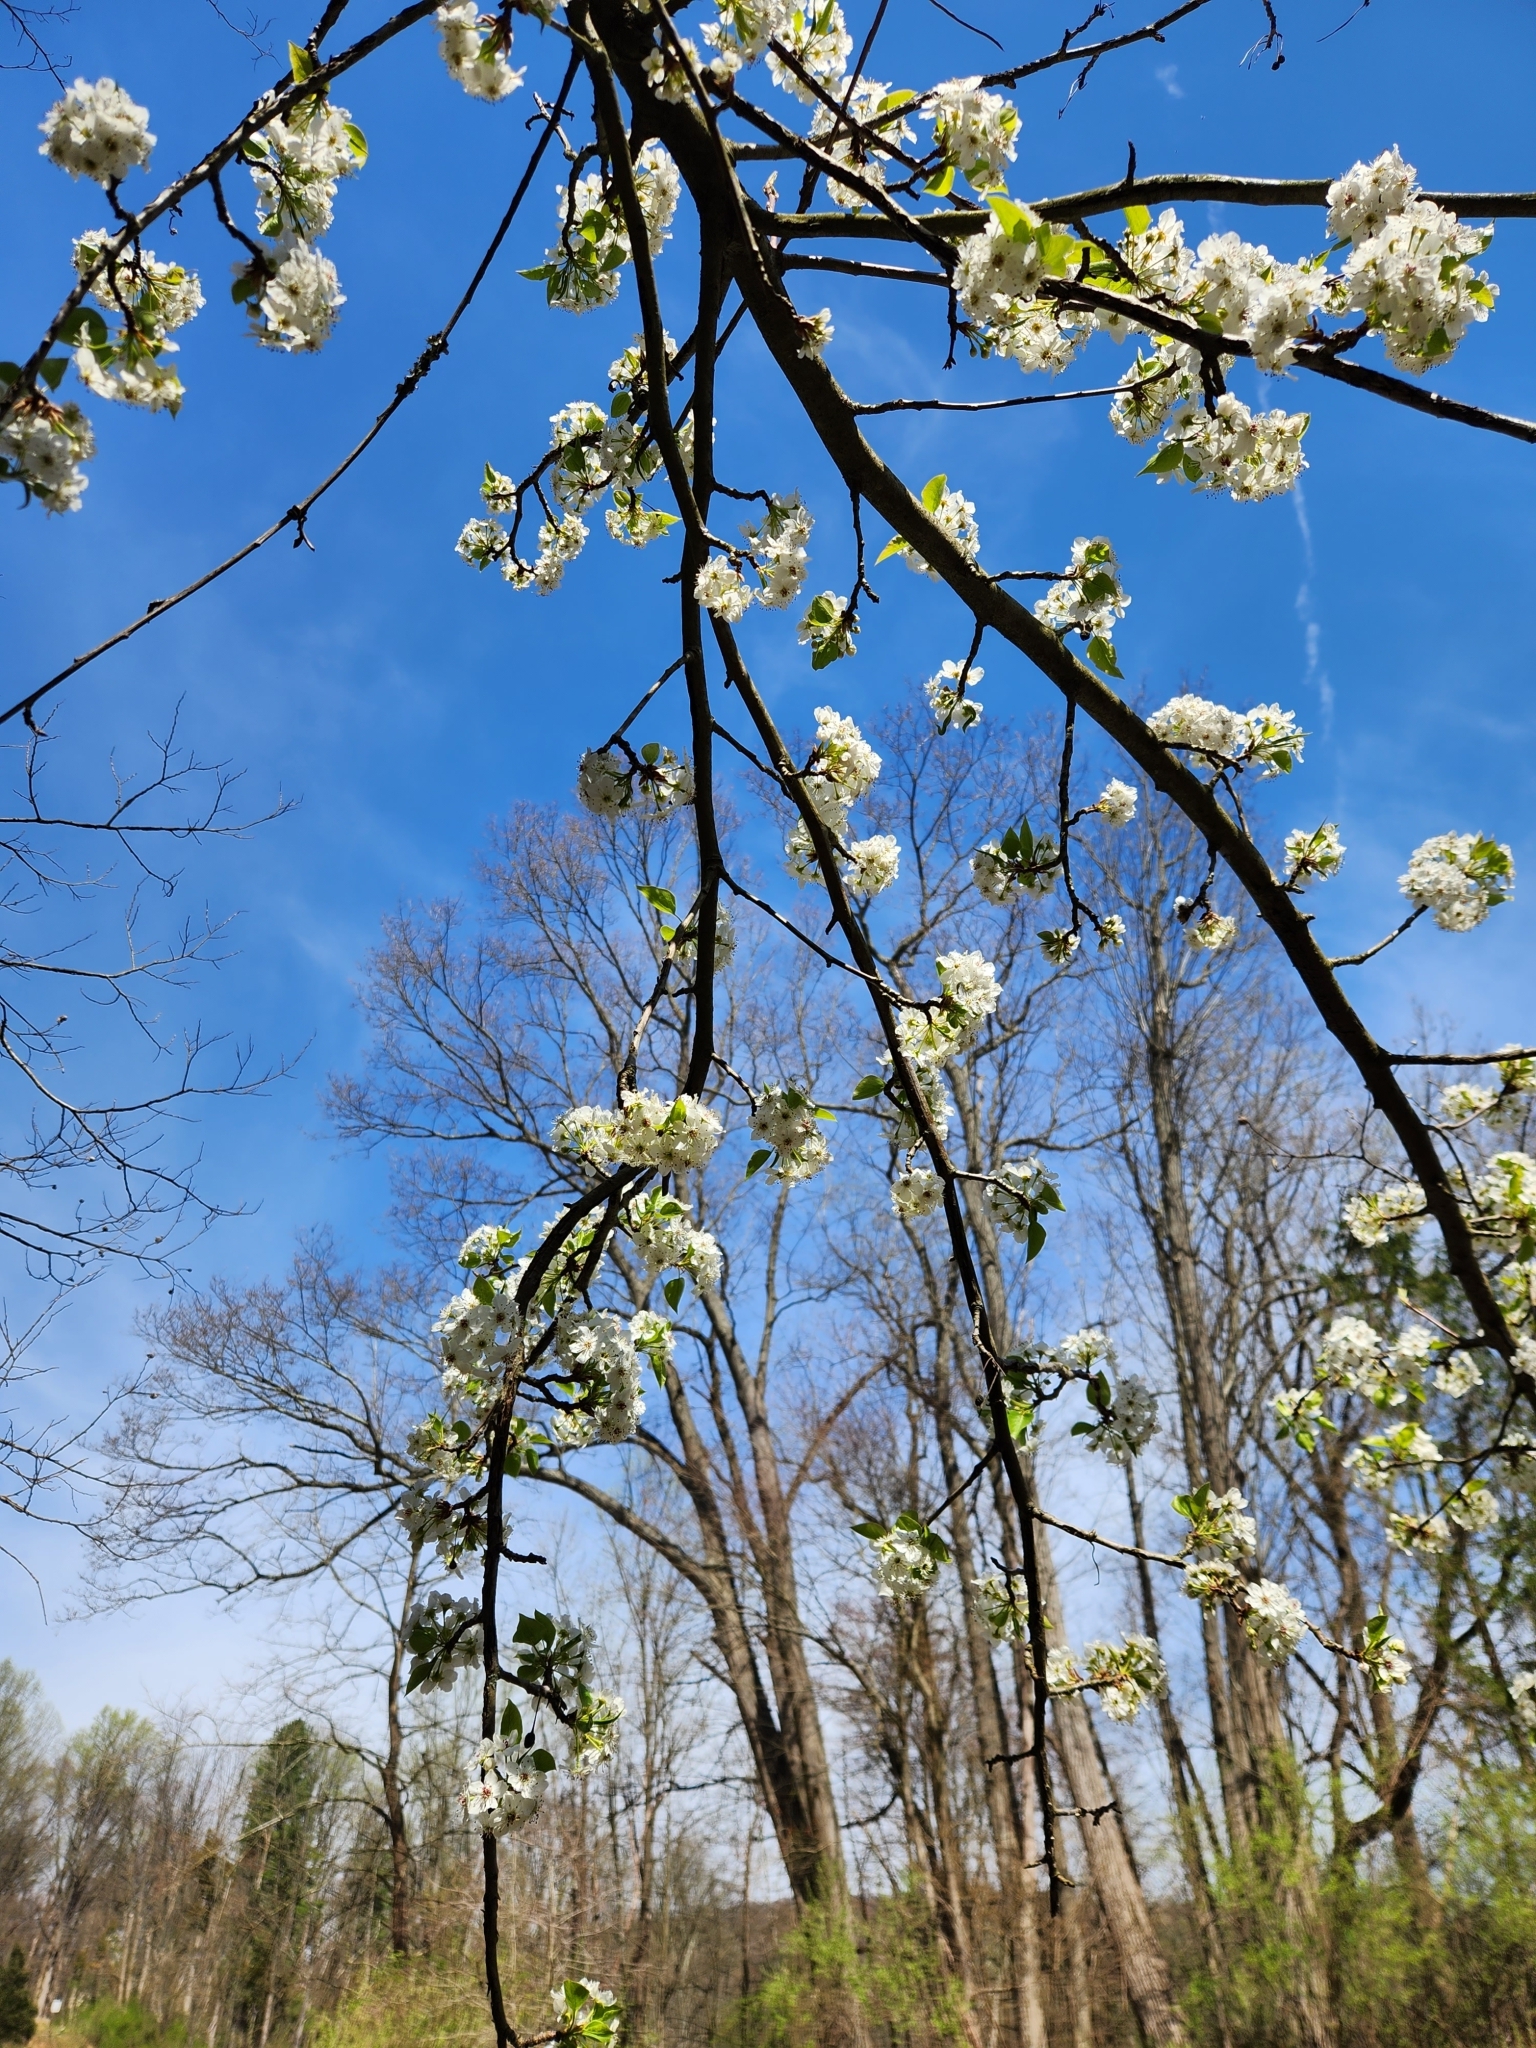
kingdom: Plantae
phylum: Tracheophyta
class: Magnoliopsida
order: Rosales
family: Rosaceae
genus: Pyrus
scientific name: Pyrus calleryana
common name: Callery pear
